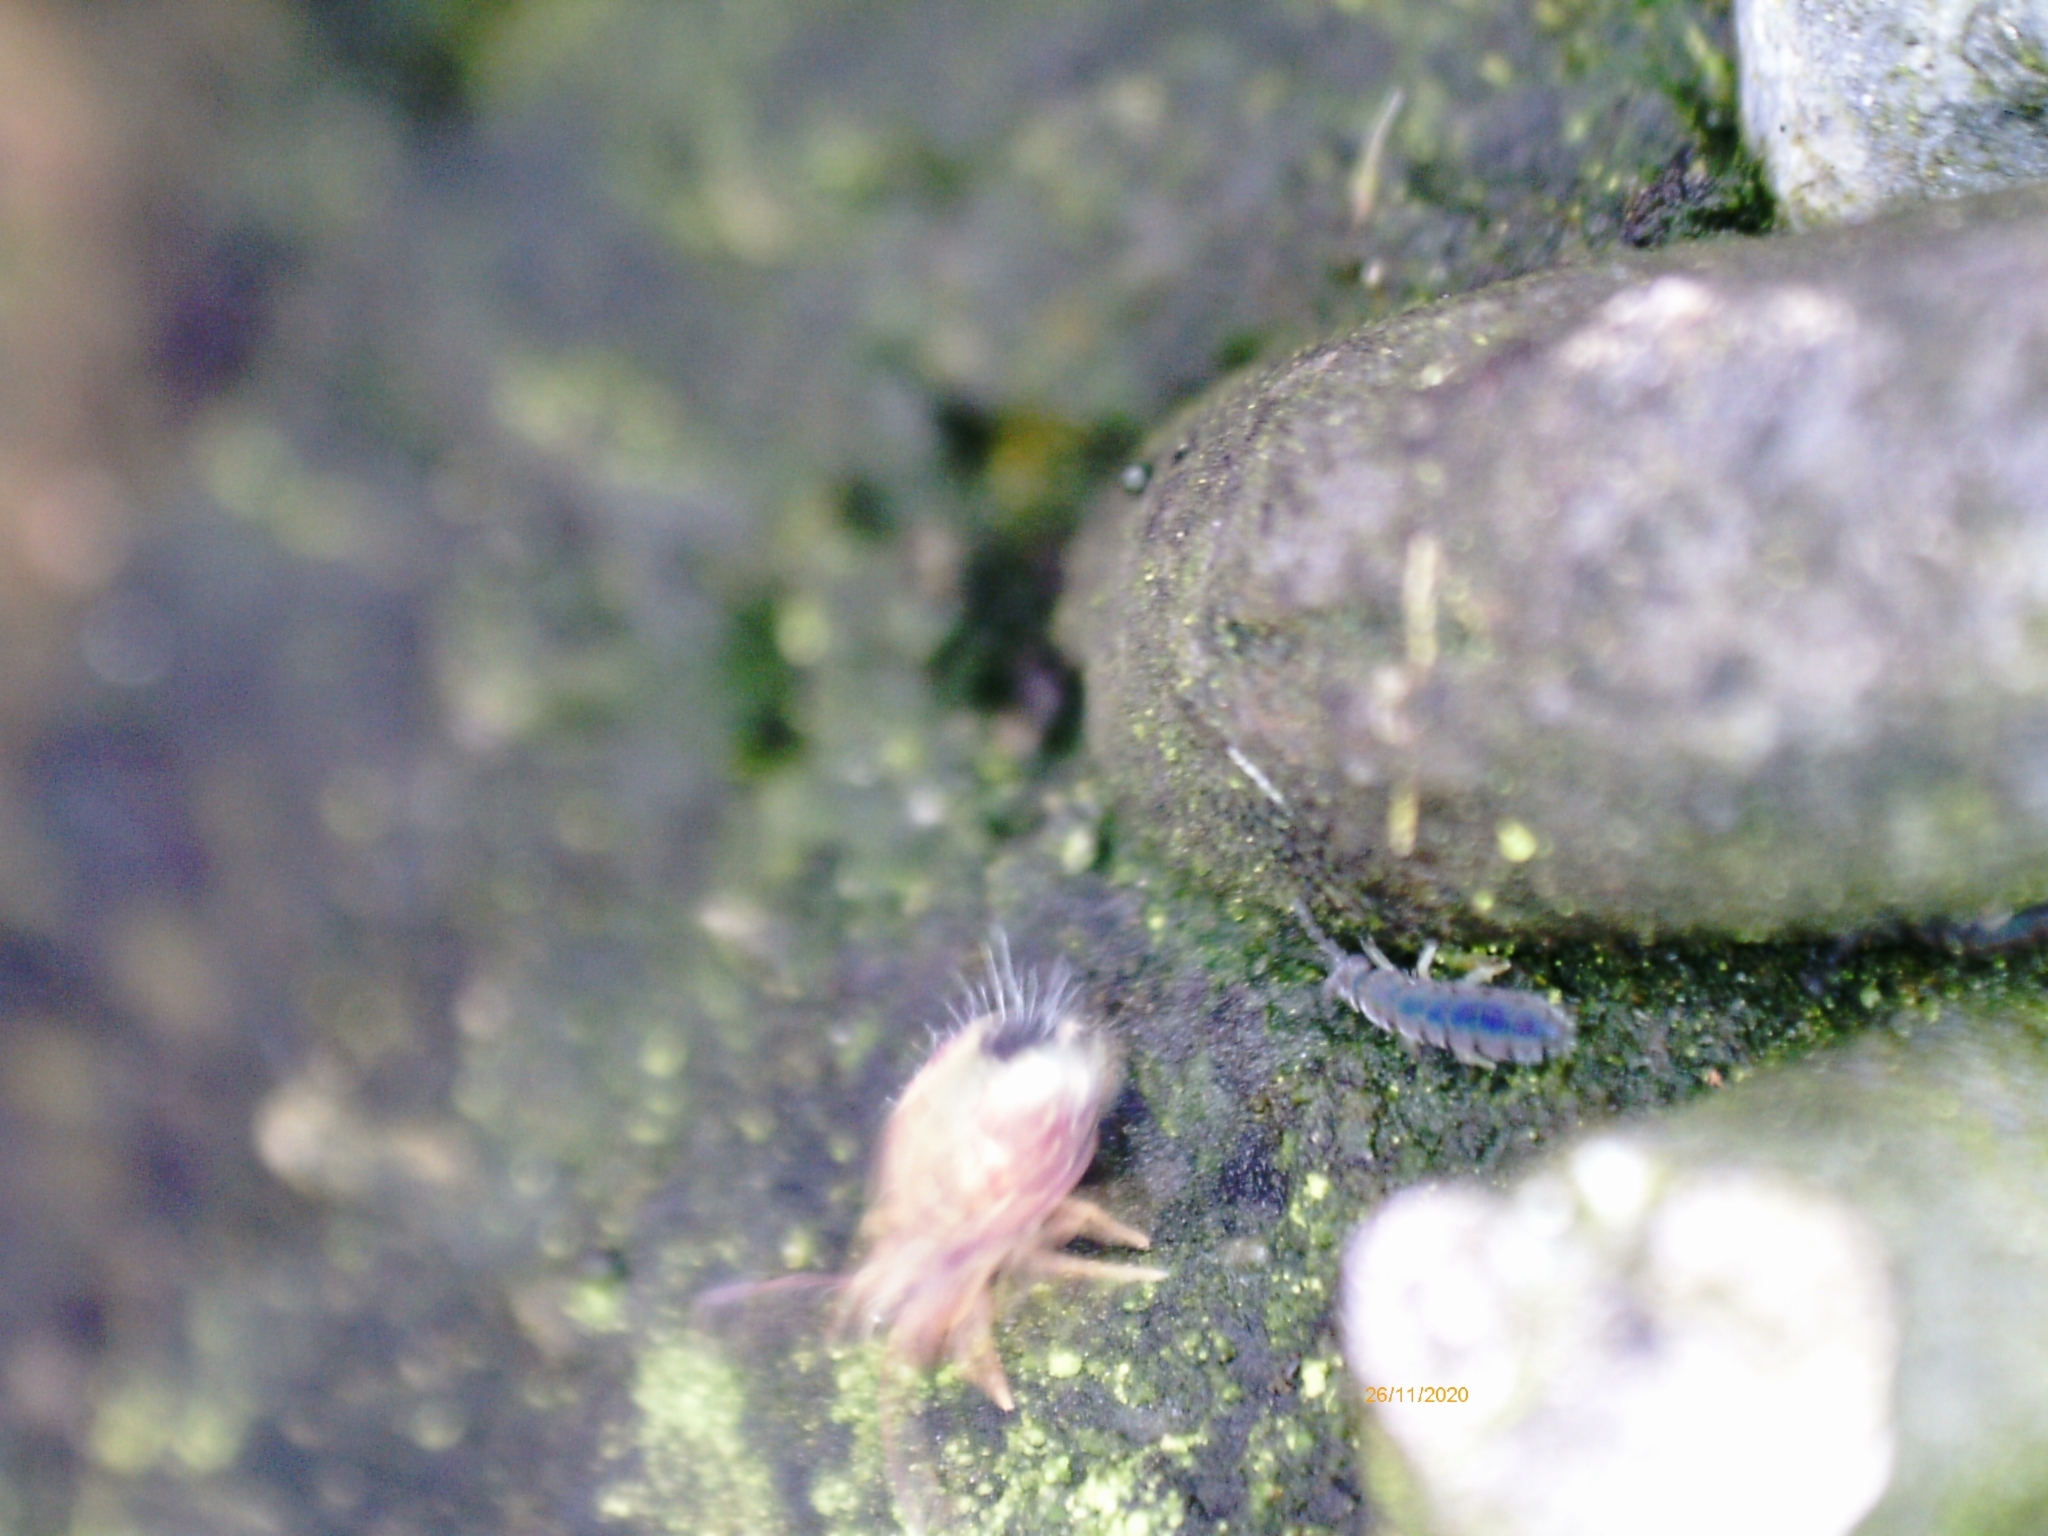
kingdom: Animalia
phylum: Arthropoda
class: Collembola
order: Entomobryomorpha
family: Isotomidae
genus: Vertagopus
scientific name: Vertagopus asiaticus
